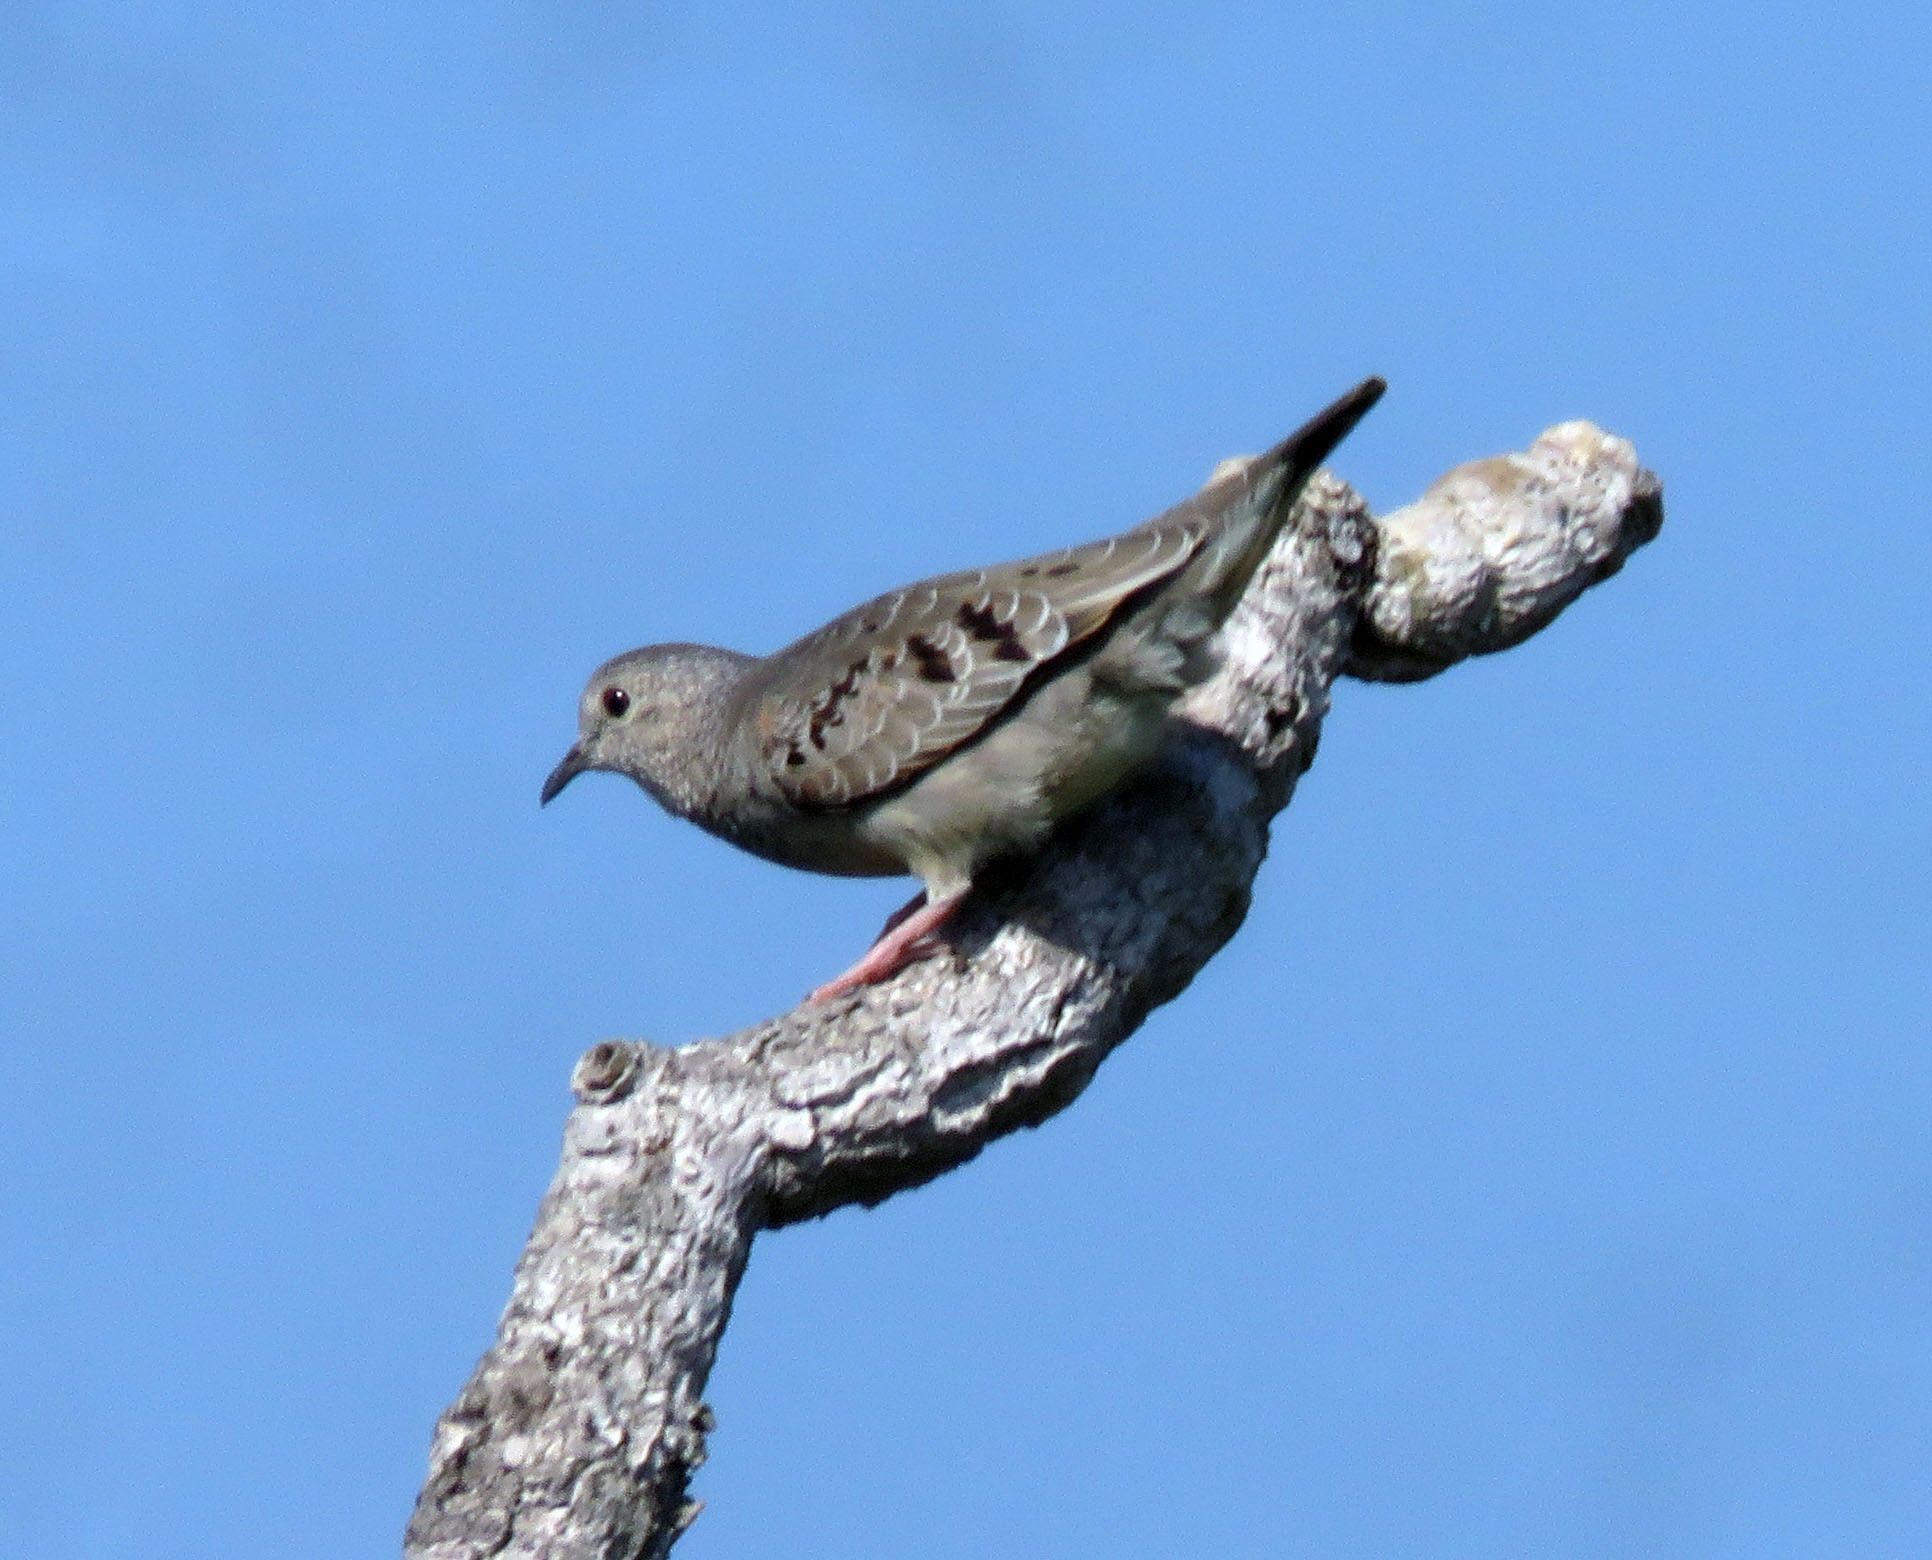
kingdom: Animalia
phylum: Chordata
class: Aves
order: Columbiformes
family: Columbidae
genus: Columbina
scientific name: Columbina passerina
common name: Common ground-dove
